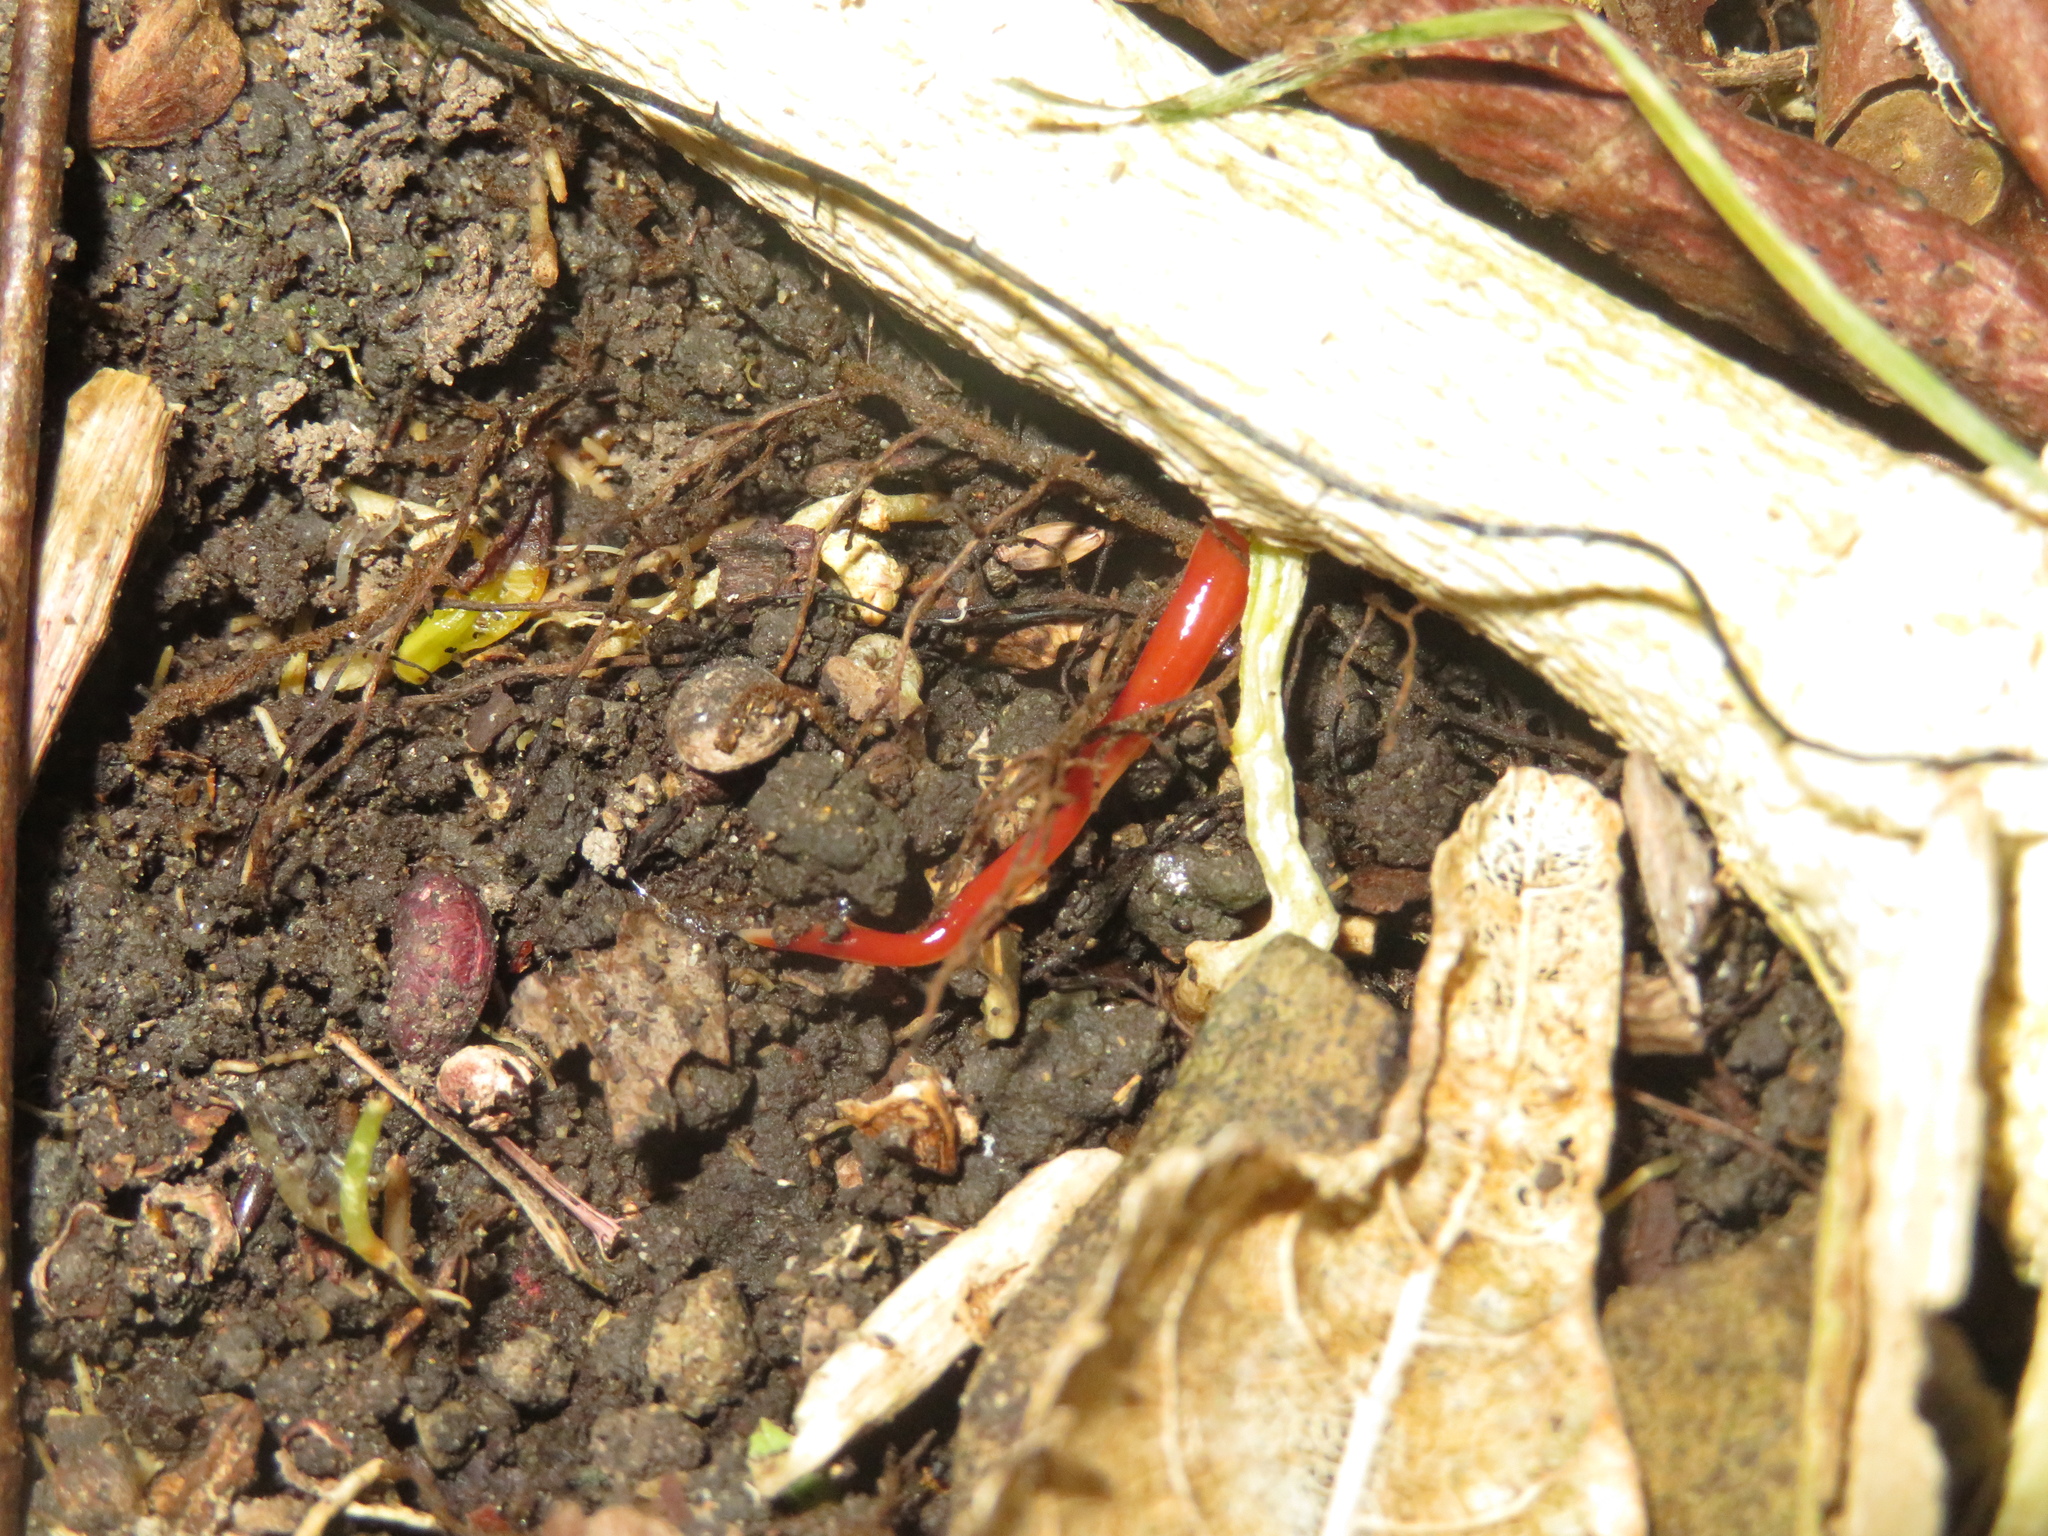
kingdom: Animalia
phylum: Platyhelminthes
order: Tricladida
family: Geoplanidae
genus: Arthurdendyus
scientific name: Arthurdendyus testaceus
